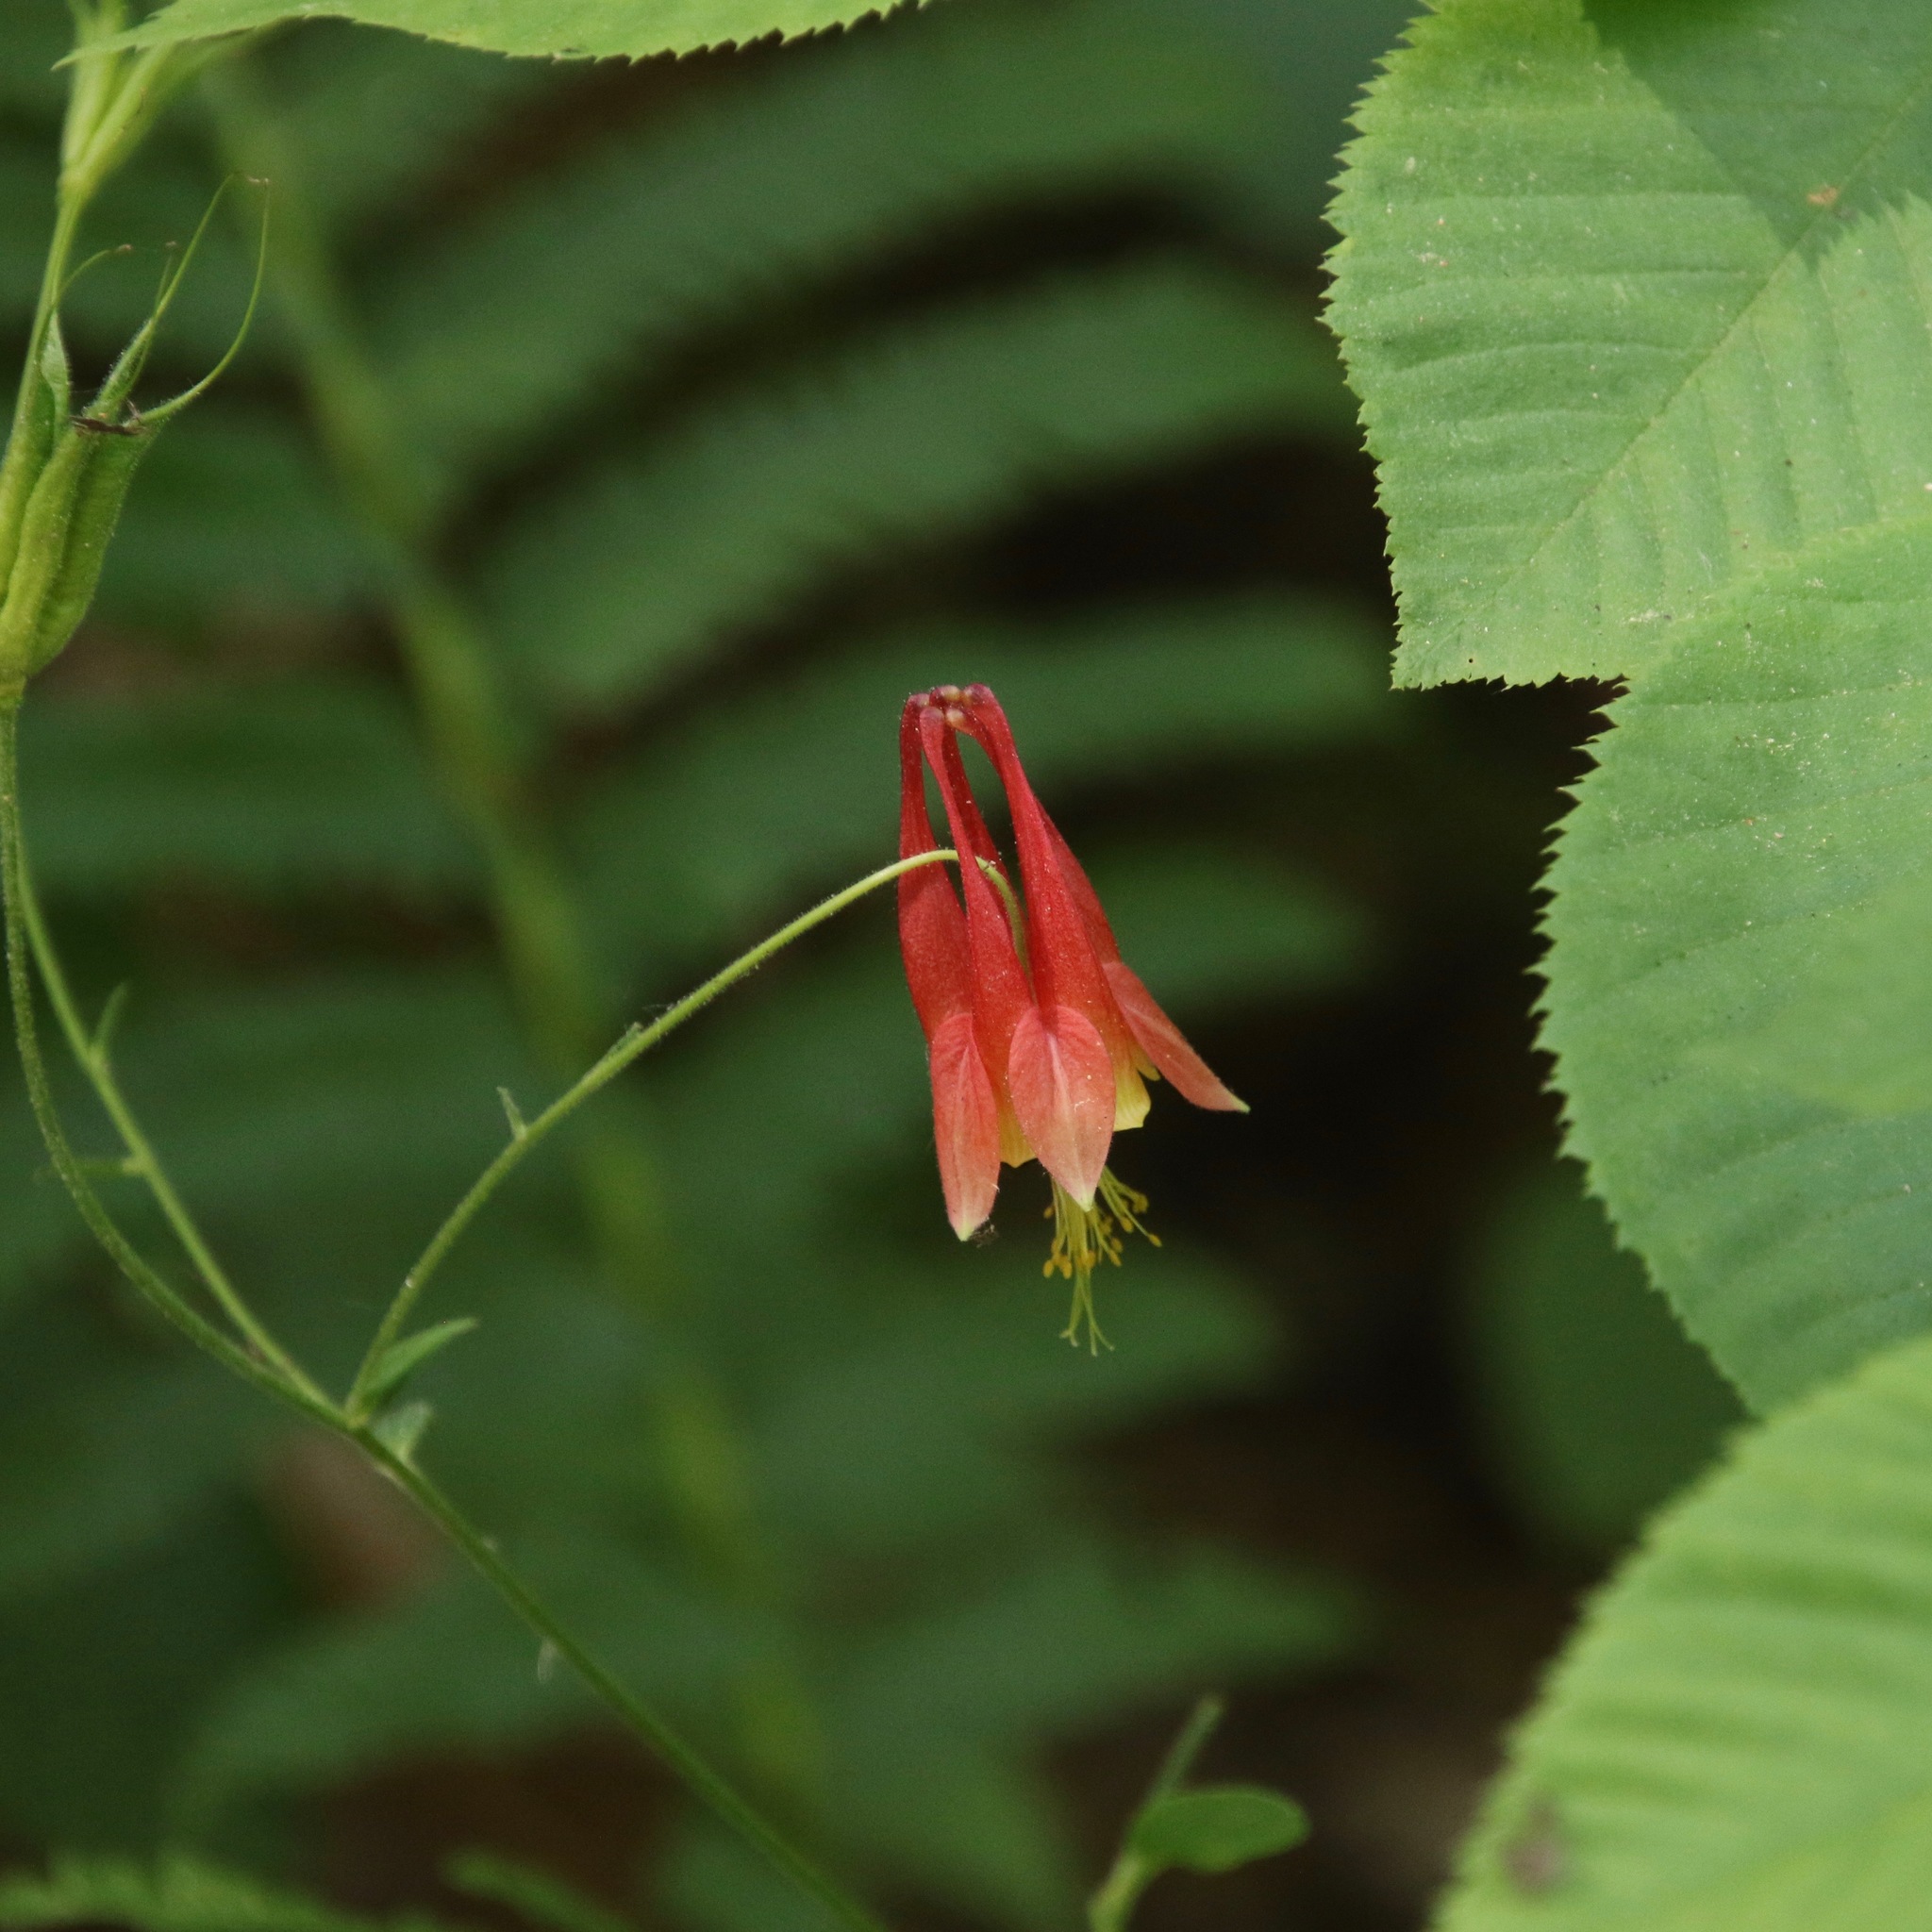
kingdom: Plantae
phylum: Tracheophyta
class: Magnoliopsida
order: Ranunculales
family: Ranunculaceae
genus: Aquilegia
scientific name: Aquilegia canadensis
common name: American columbine
